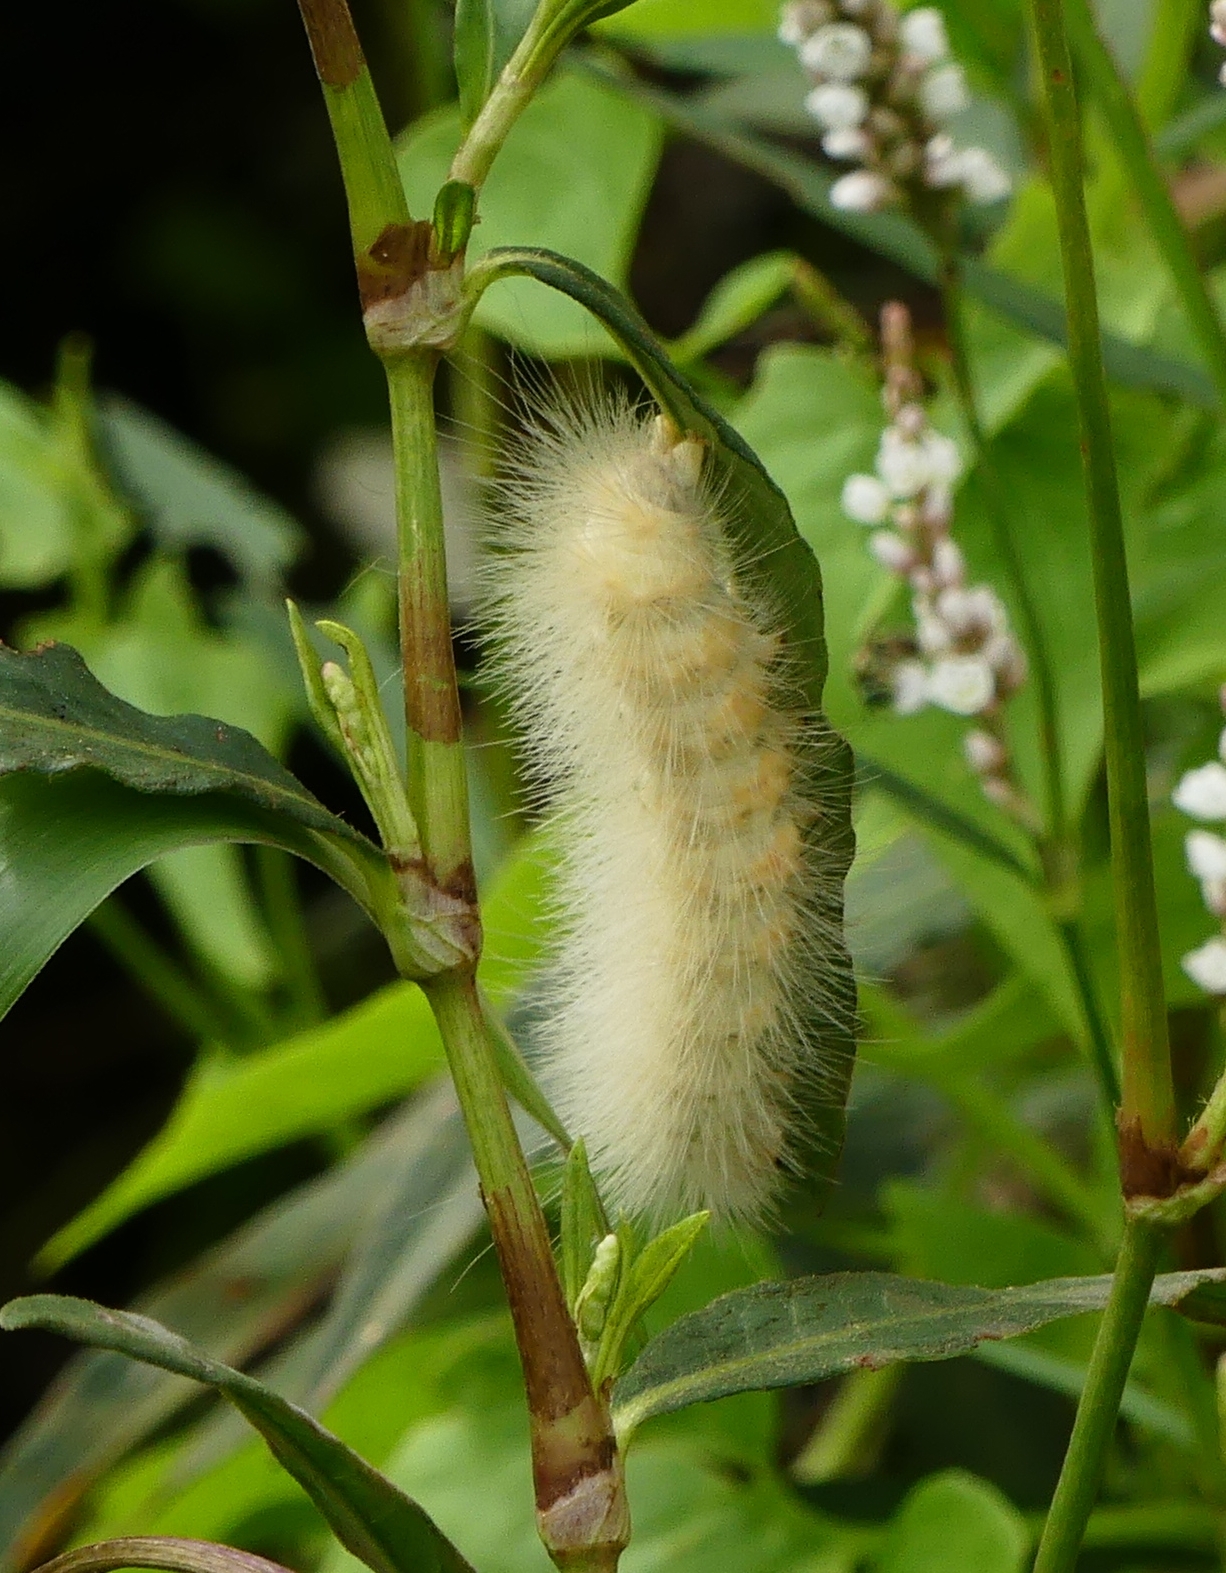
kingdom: Animalia
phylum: Arthropoda
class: Insecta
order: Lepidoptera
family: Erebidae
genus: Spilosoma
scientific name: Spilosoma virginica
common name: Virginia tiger moth
